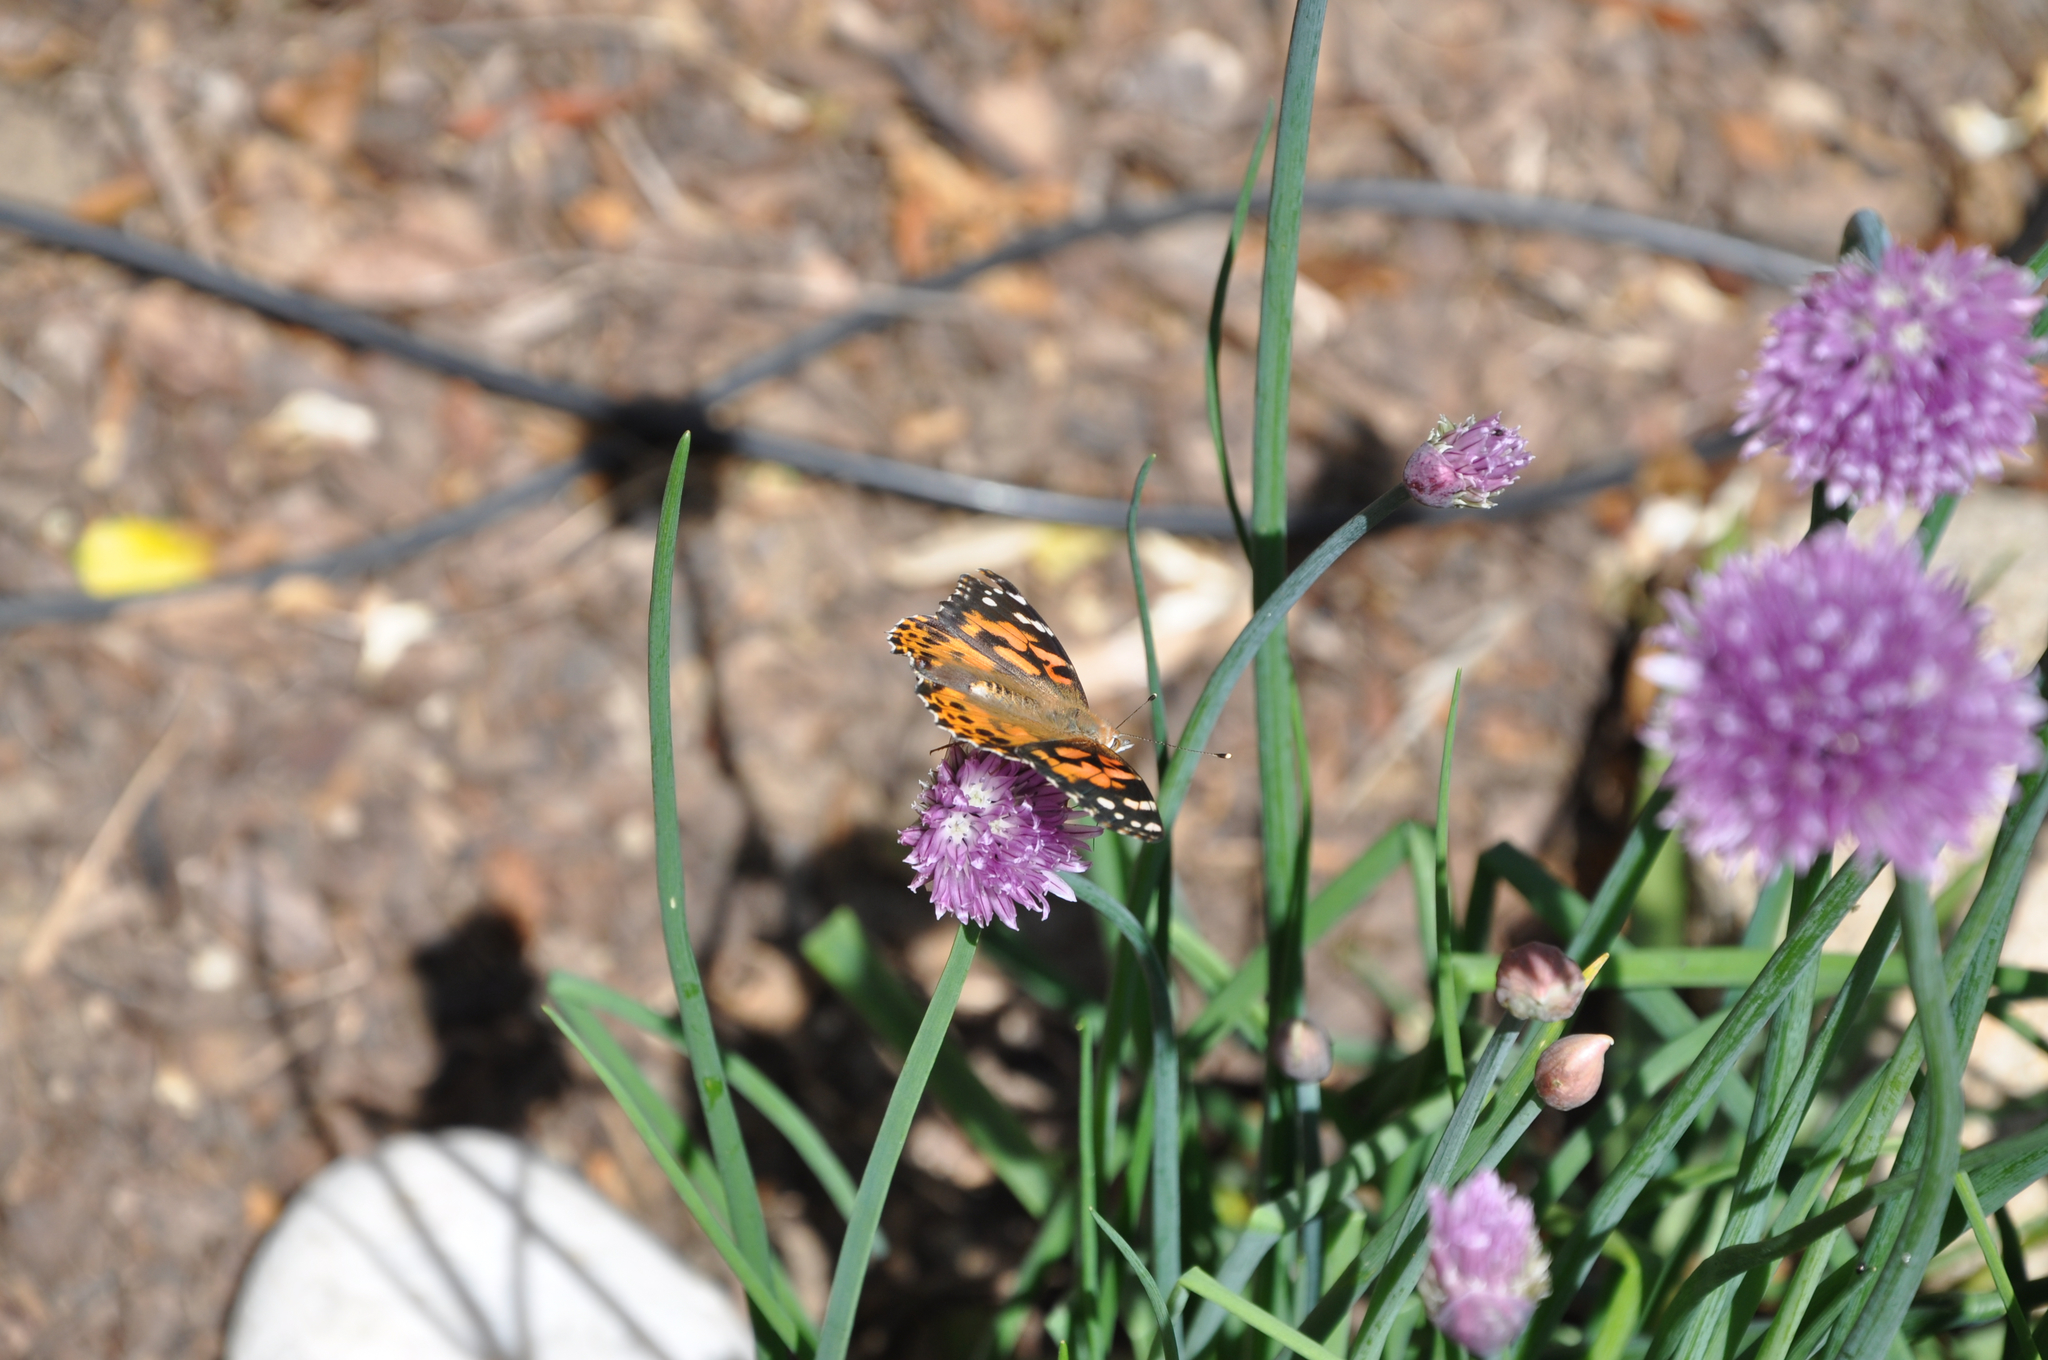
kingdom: Animalia
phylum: Arthropoda
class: Insecta
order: Lepidoptera
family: Nymphalidae
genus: Vanessa
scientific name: Vanessa cardui
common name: Painted lady
